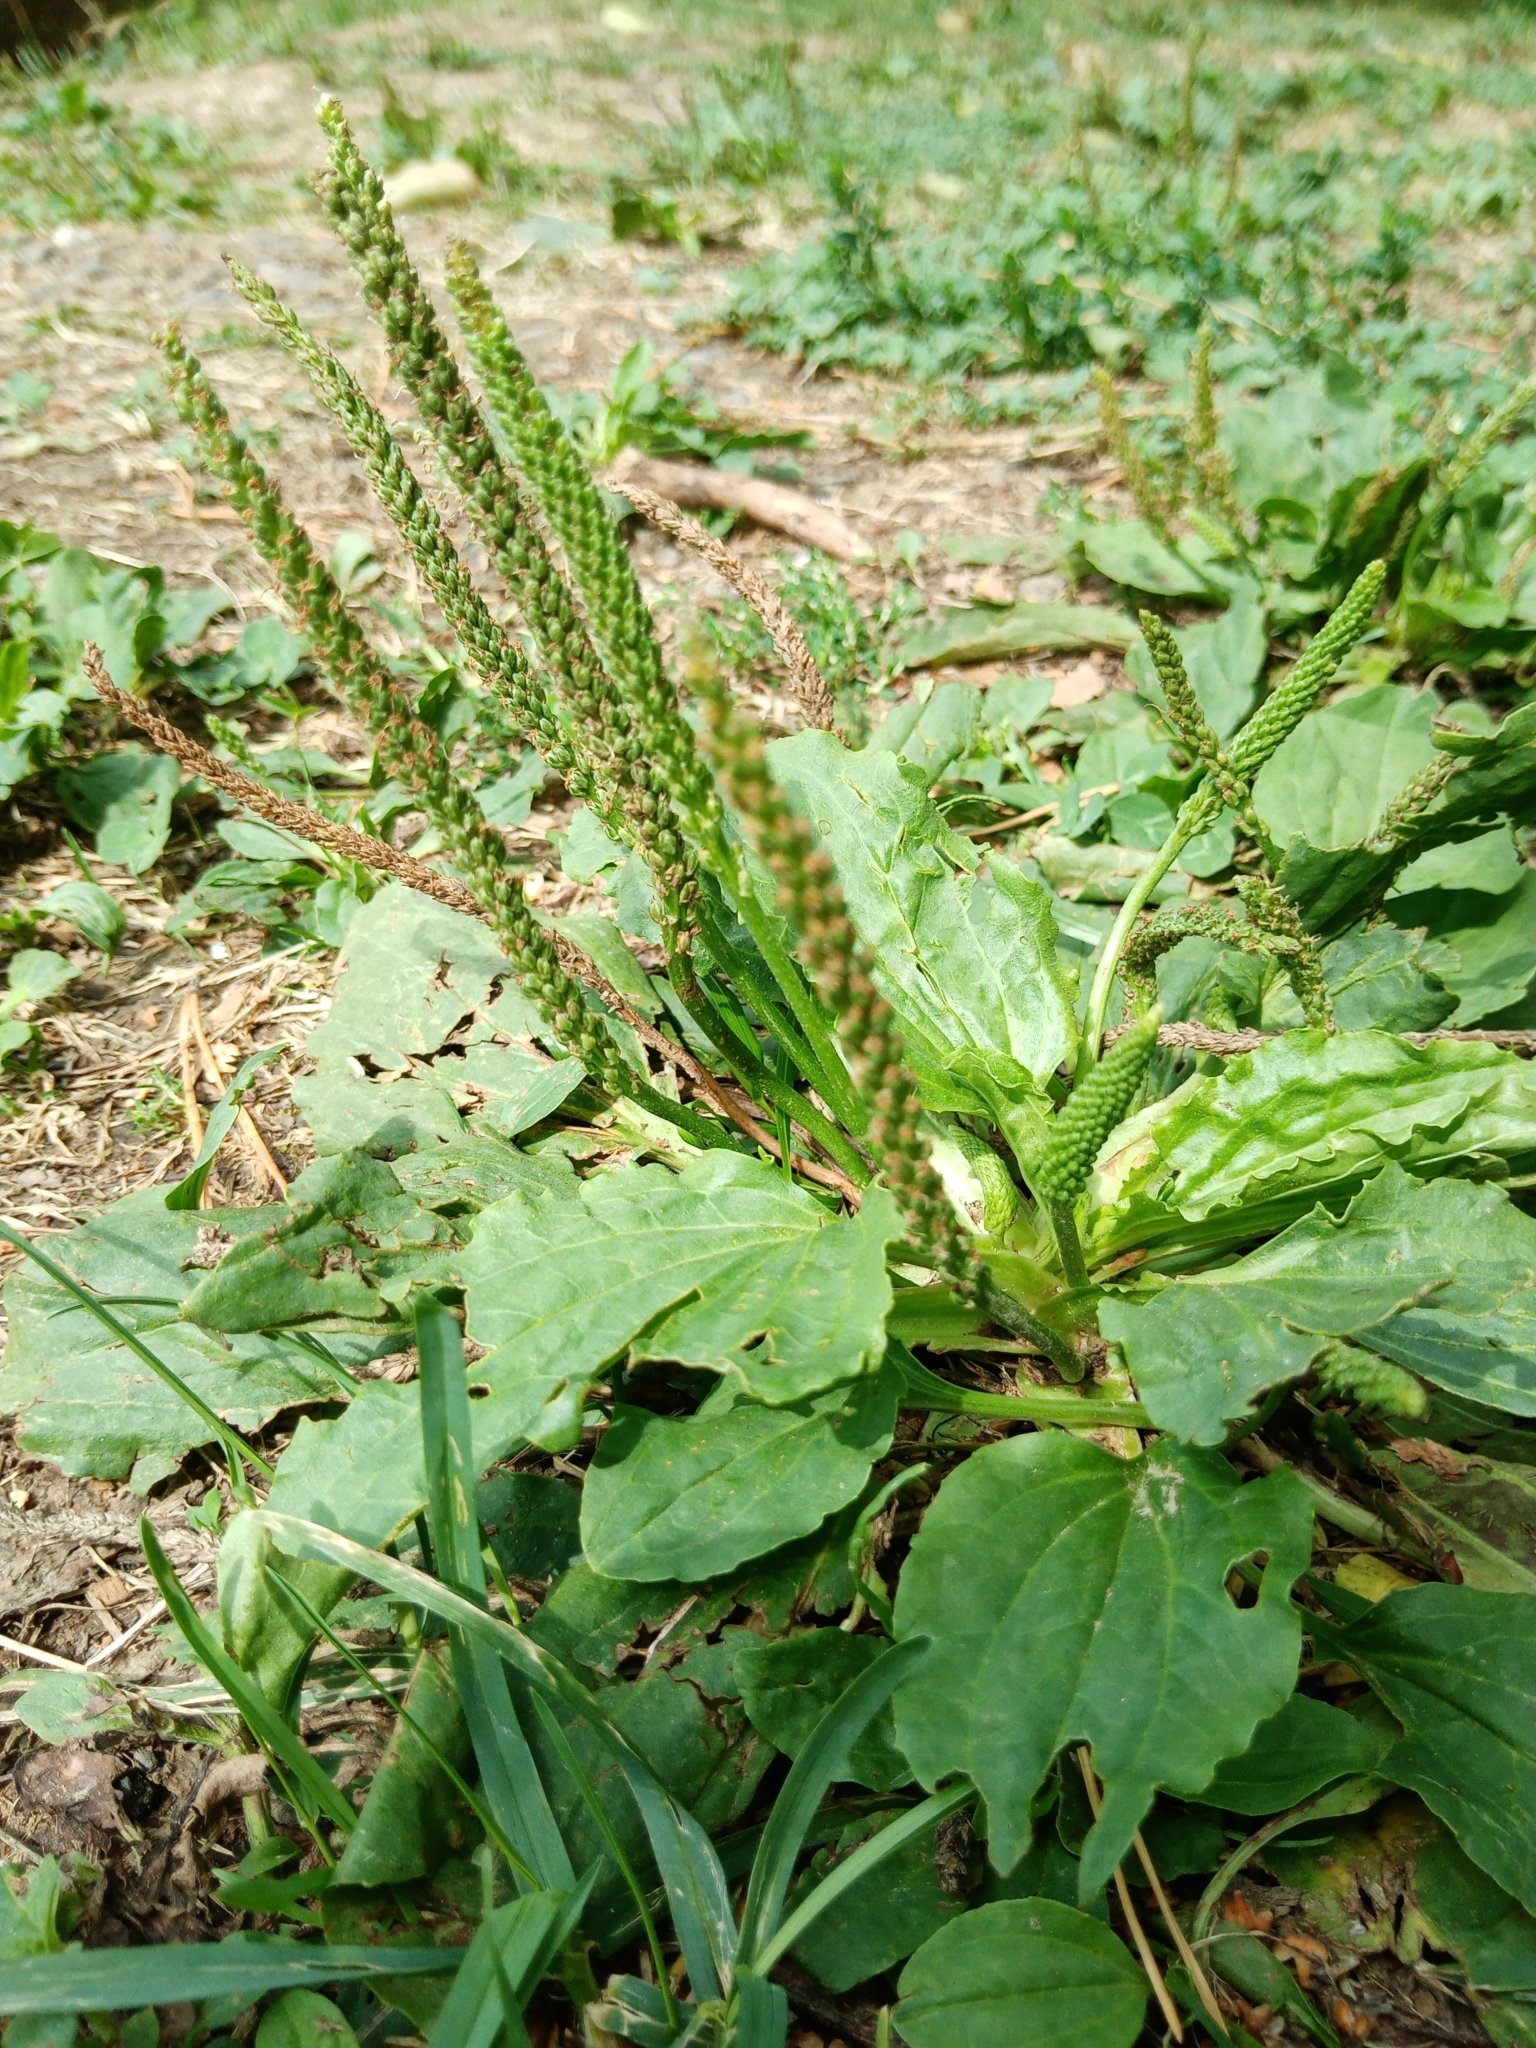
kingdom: Plantae
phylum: Tracheophyta
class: Magnoliopsida
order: Lamiales
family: Plantaginaceae
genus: Plantago
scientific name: Plantago major
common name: Common plantain
